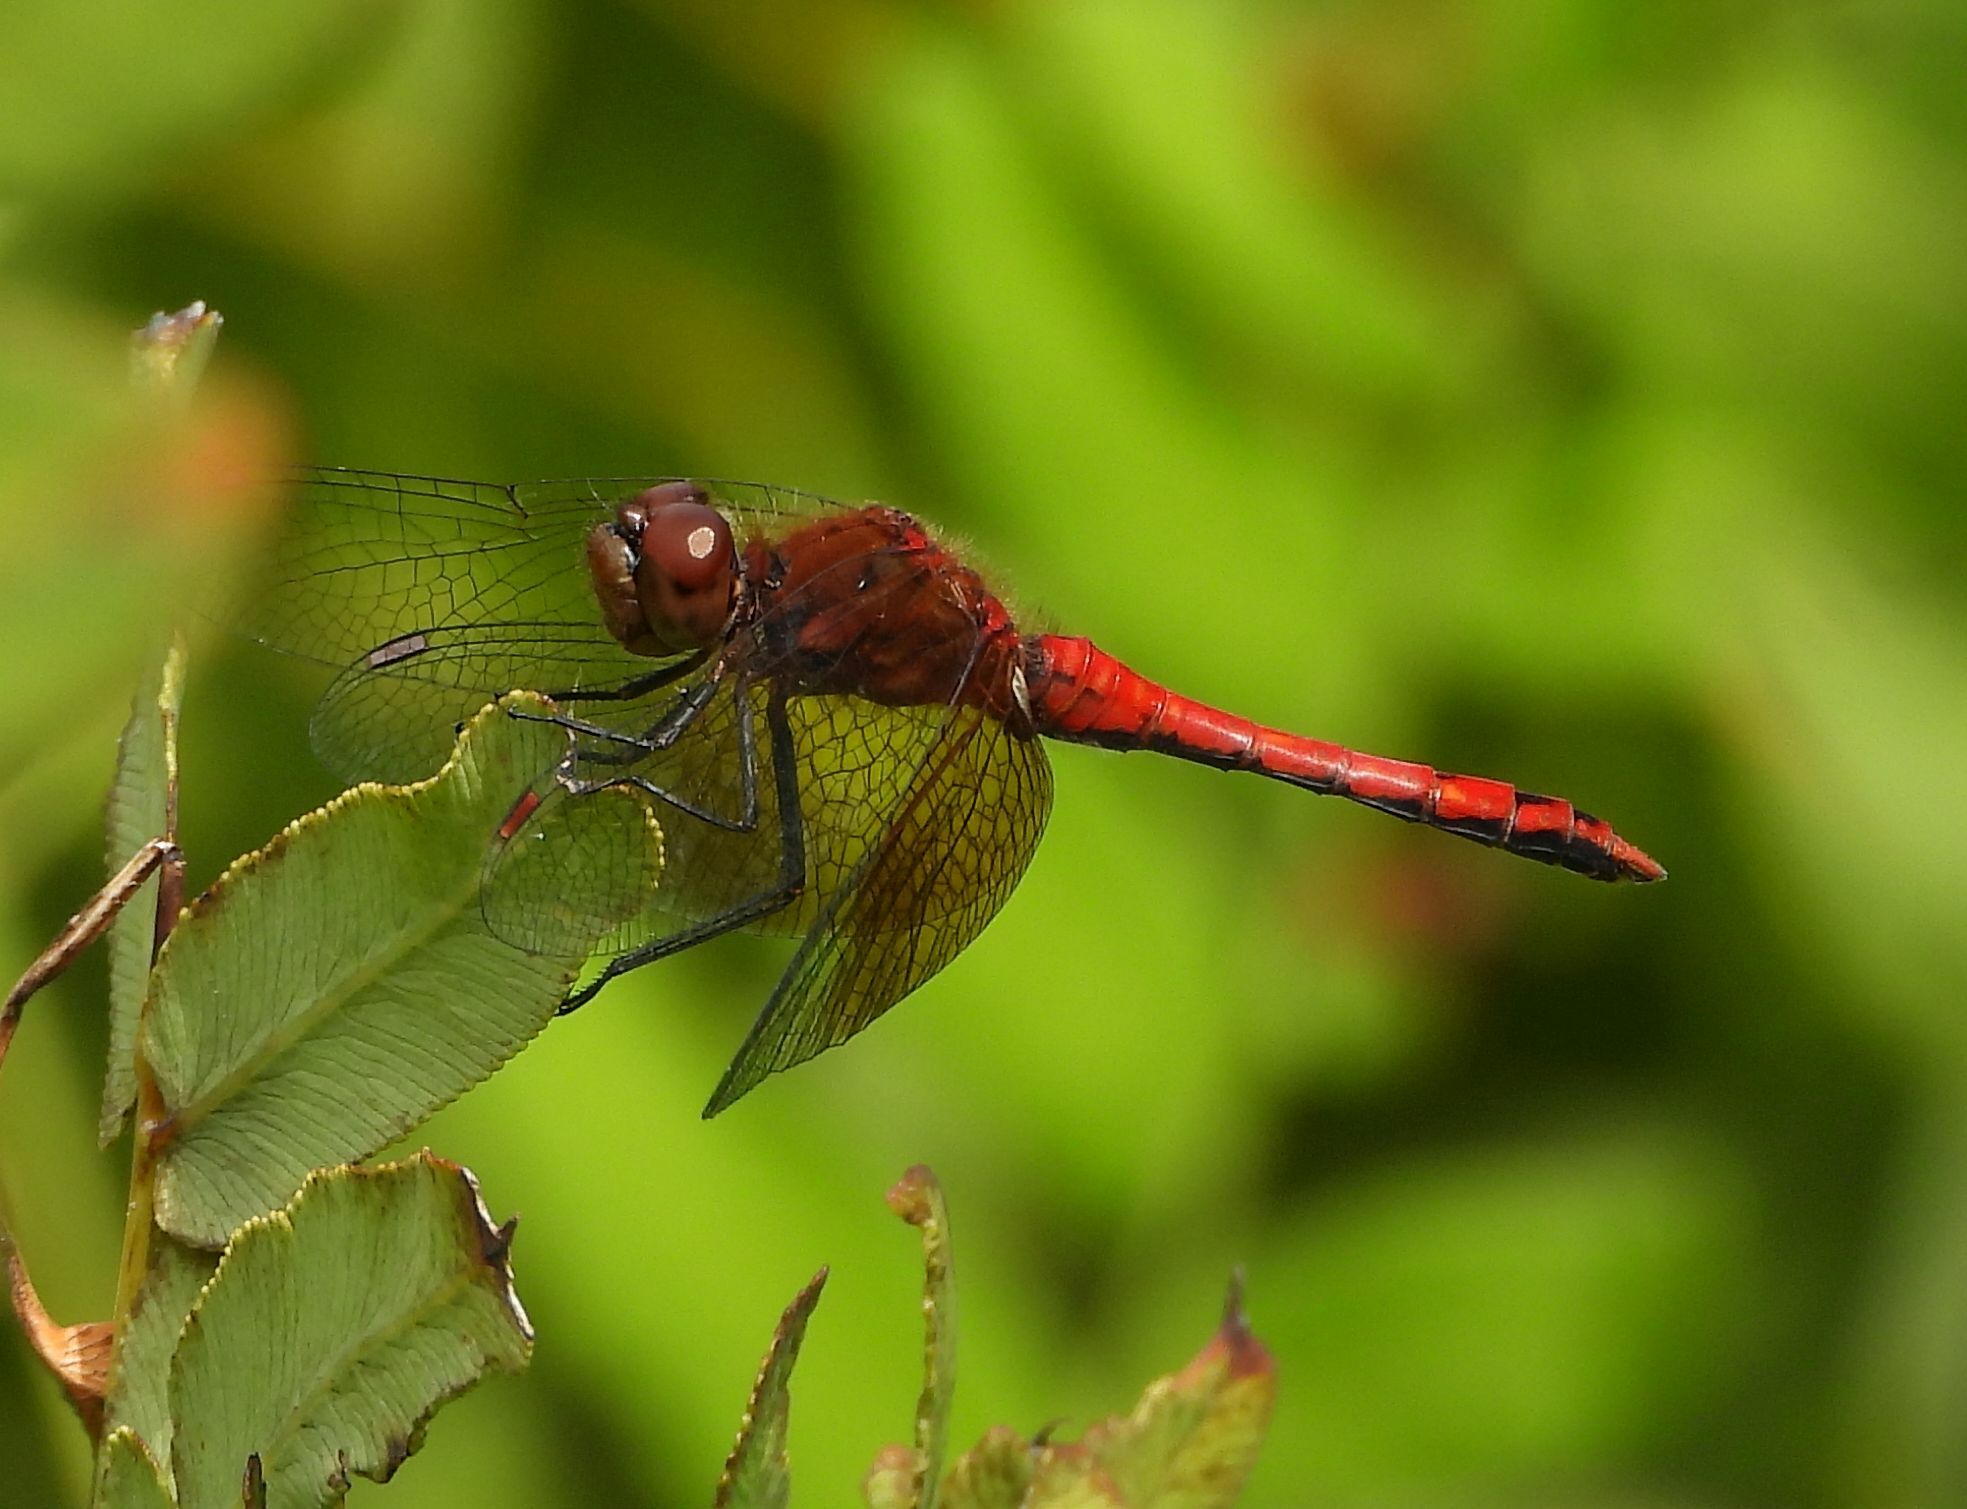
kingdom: Animalia
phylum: Arthropoda
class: Insecta
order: Odonata
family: Libellulidae
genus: Sympetrum
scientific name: Sympetrum semicinctum
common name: Band-winged meadowhawk
